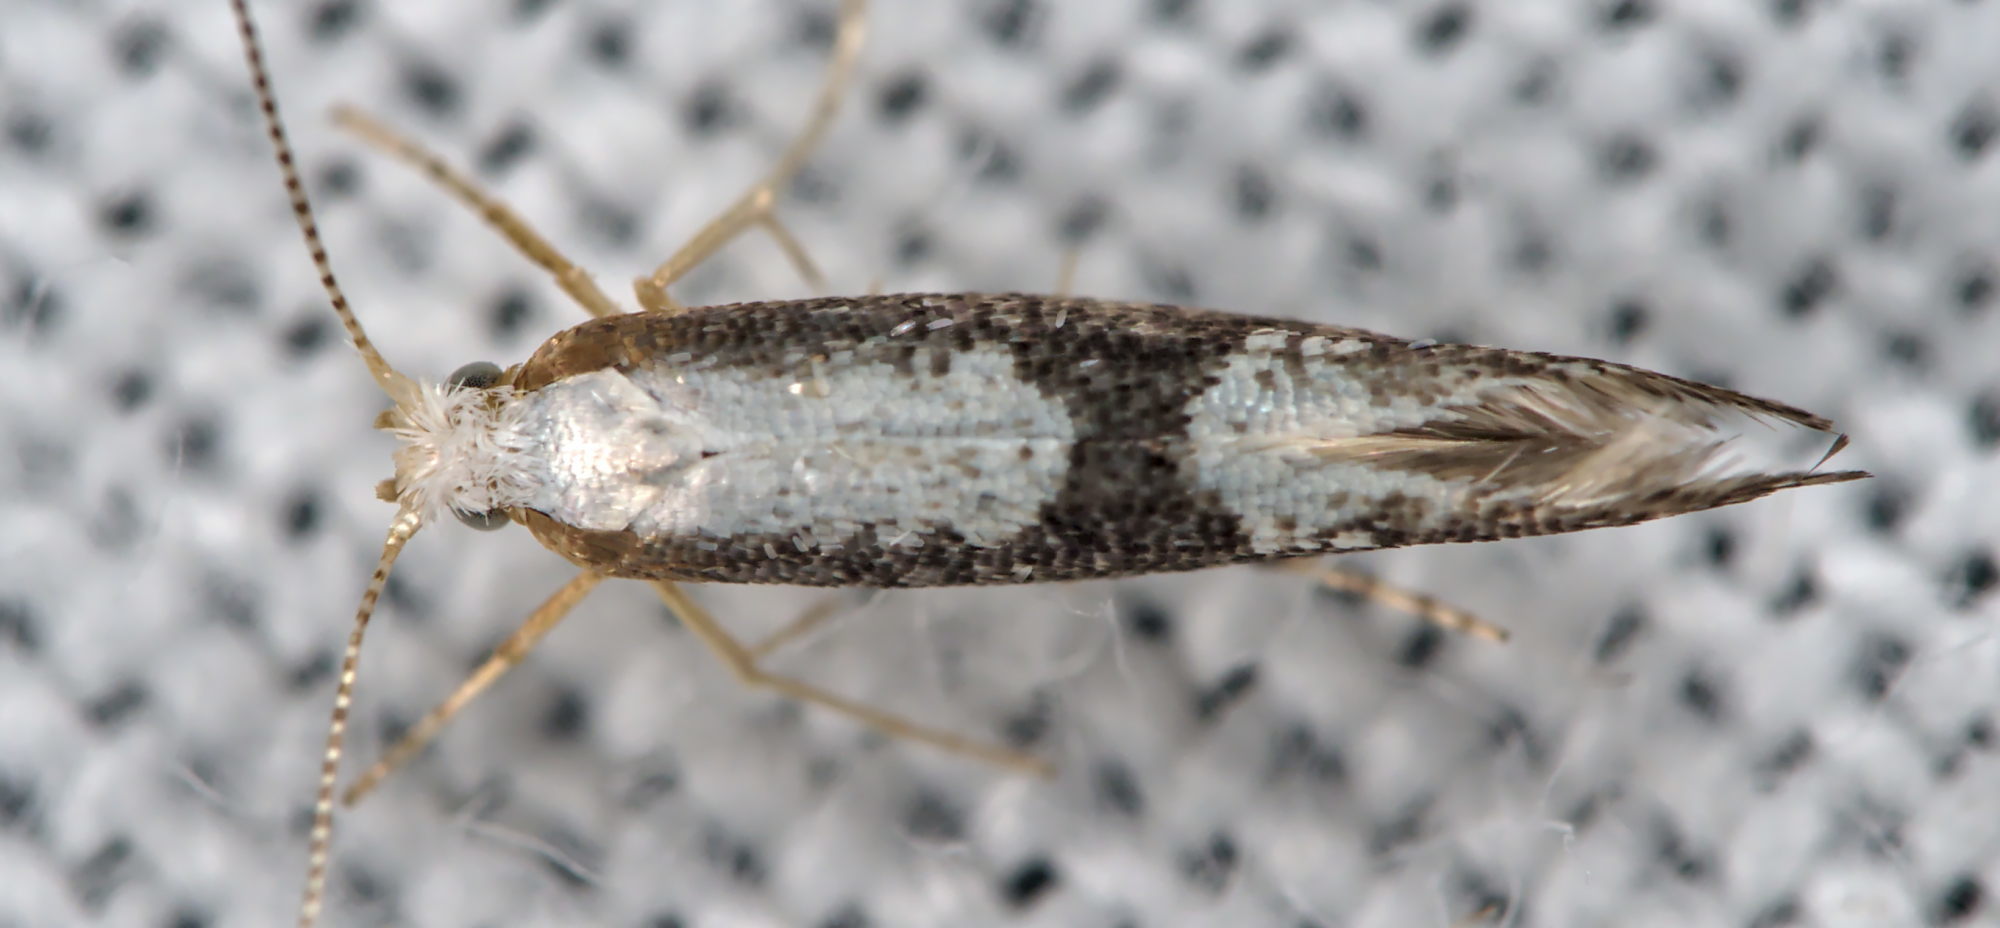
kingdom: Animalia
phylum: Arthropoda
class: Insecta
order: Lepidoptera
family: Argyresthiidae
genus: Argyresthia
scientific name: Argyresthia spinosella
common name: Blackthorn argent
